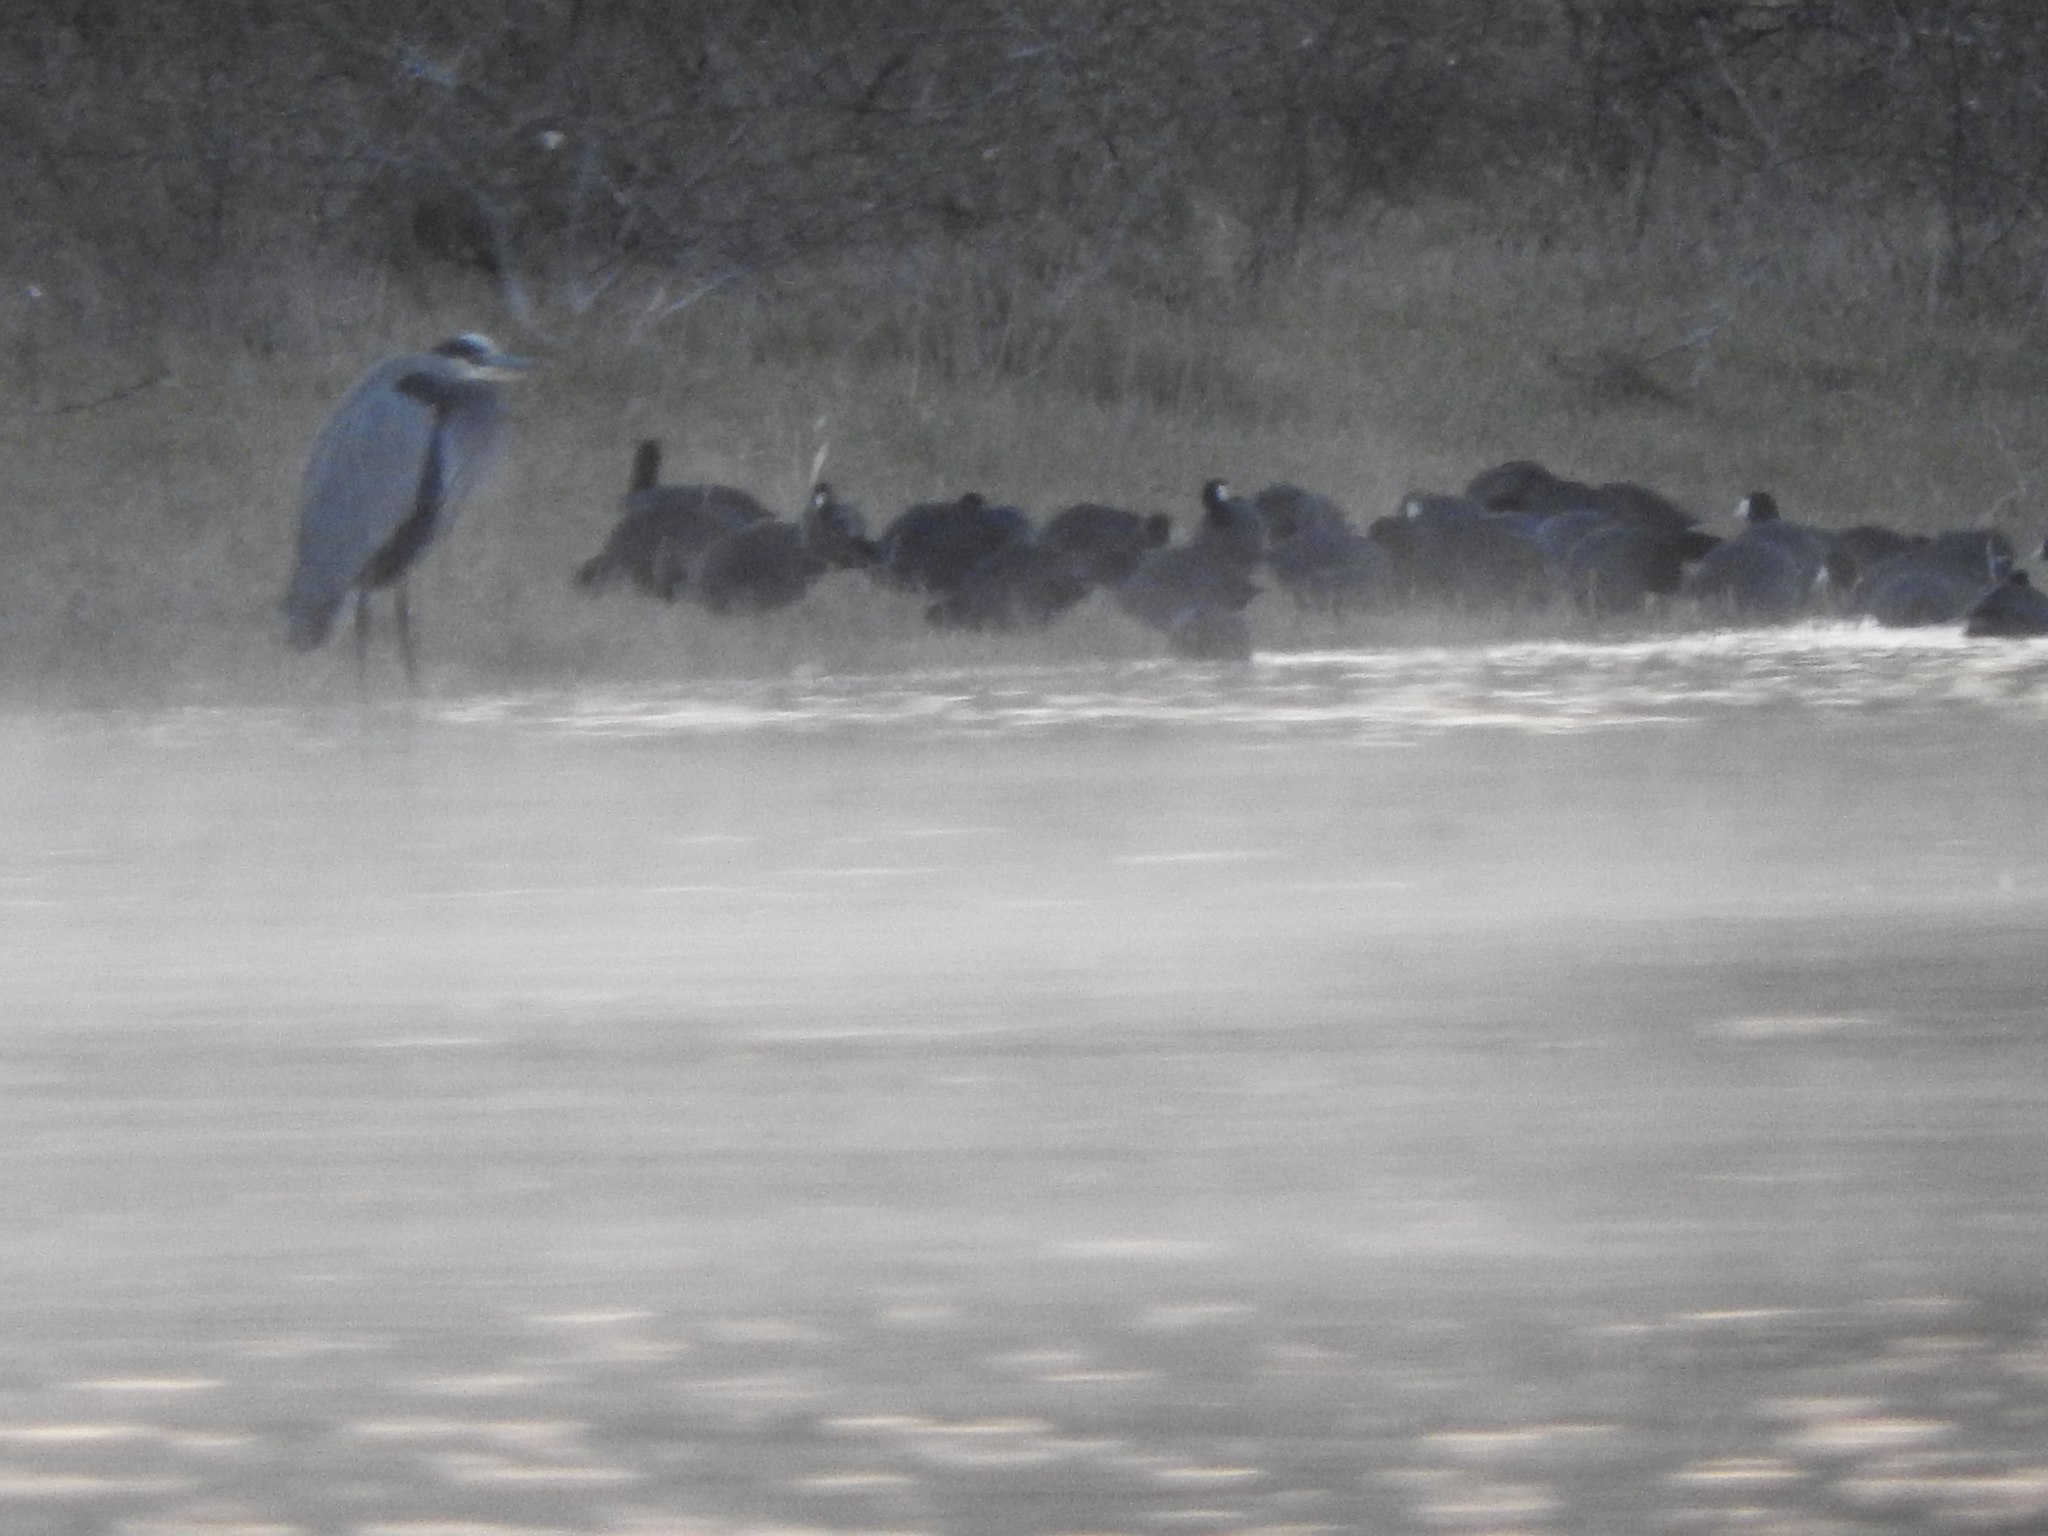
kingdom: Animalia
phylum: Chordata
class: Aves
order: Gruiformes
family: Rallidae
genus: Fulica
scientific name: Fulica americana
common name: American coot
